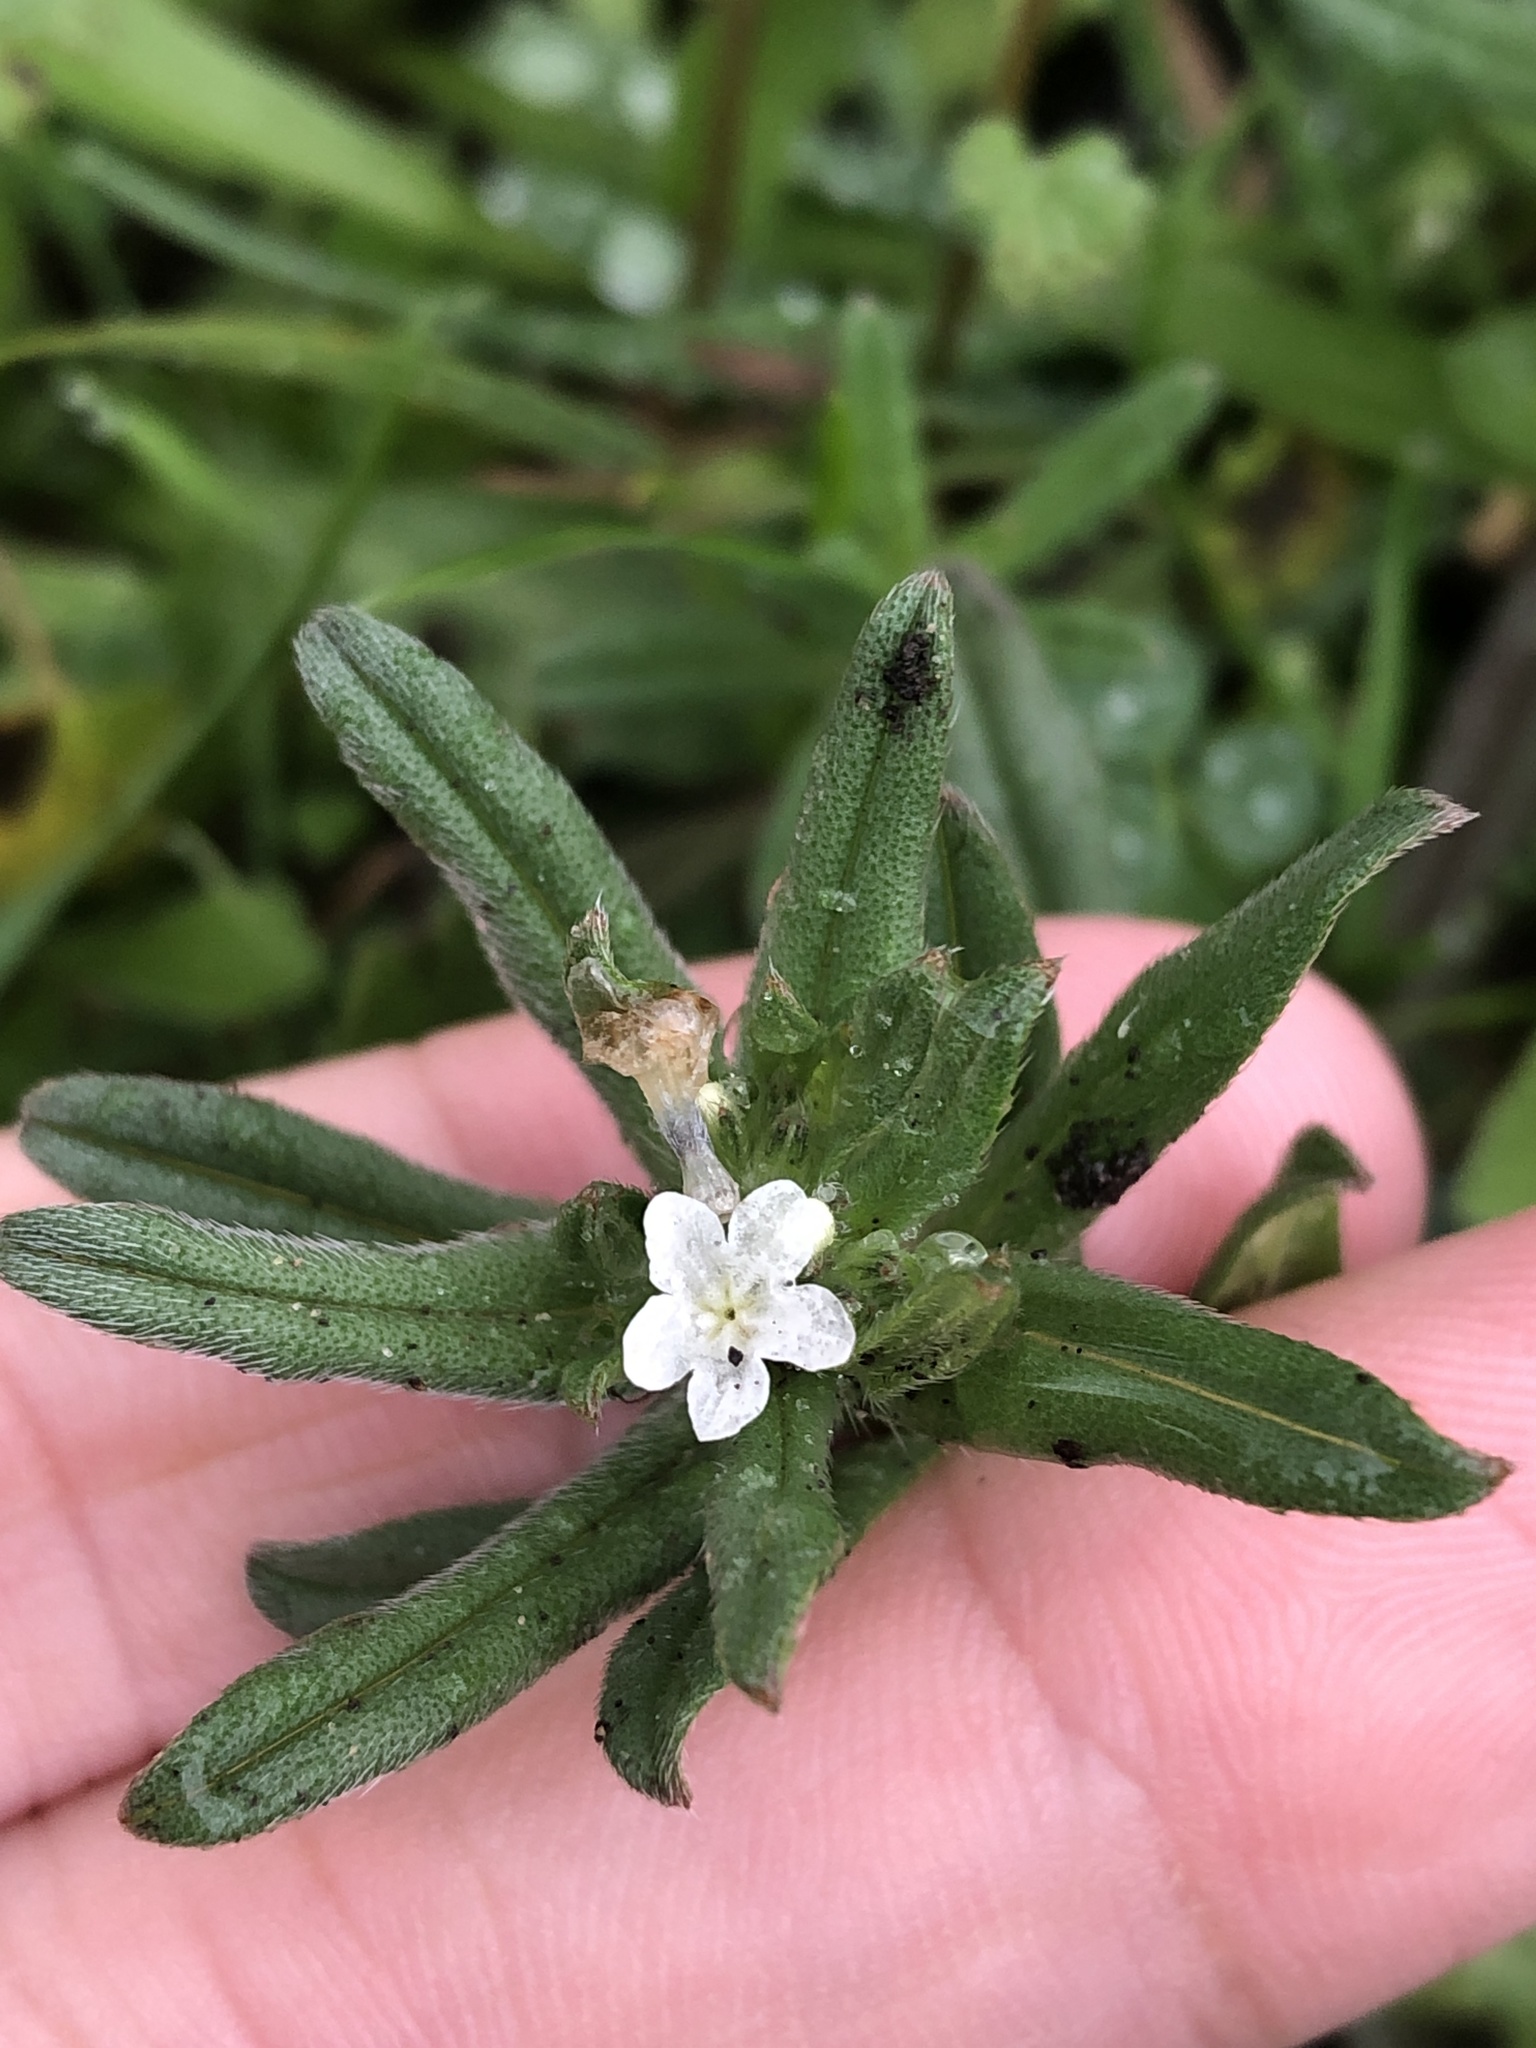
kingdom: Plantae
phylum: Tracheophyta
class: Magnoliopsida
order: Boraginales
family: Boraginaceae
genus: Buglossoides
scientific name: Buglossoides arvensis
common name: Corn gromwell
